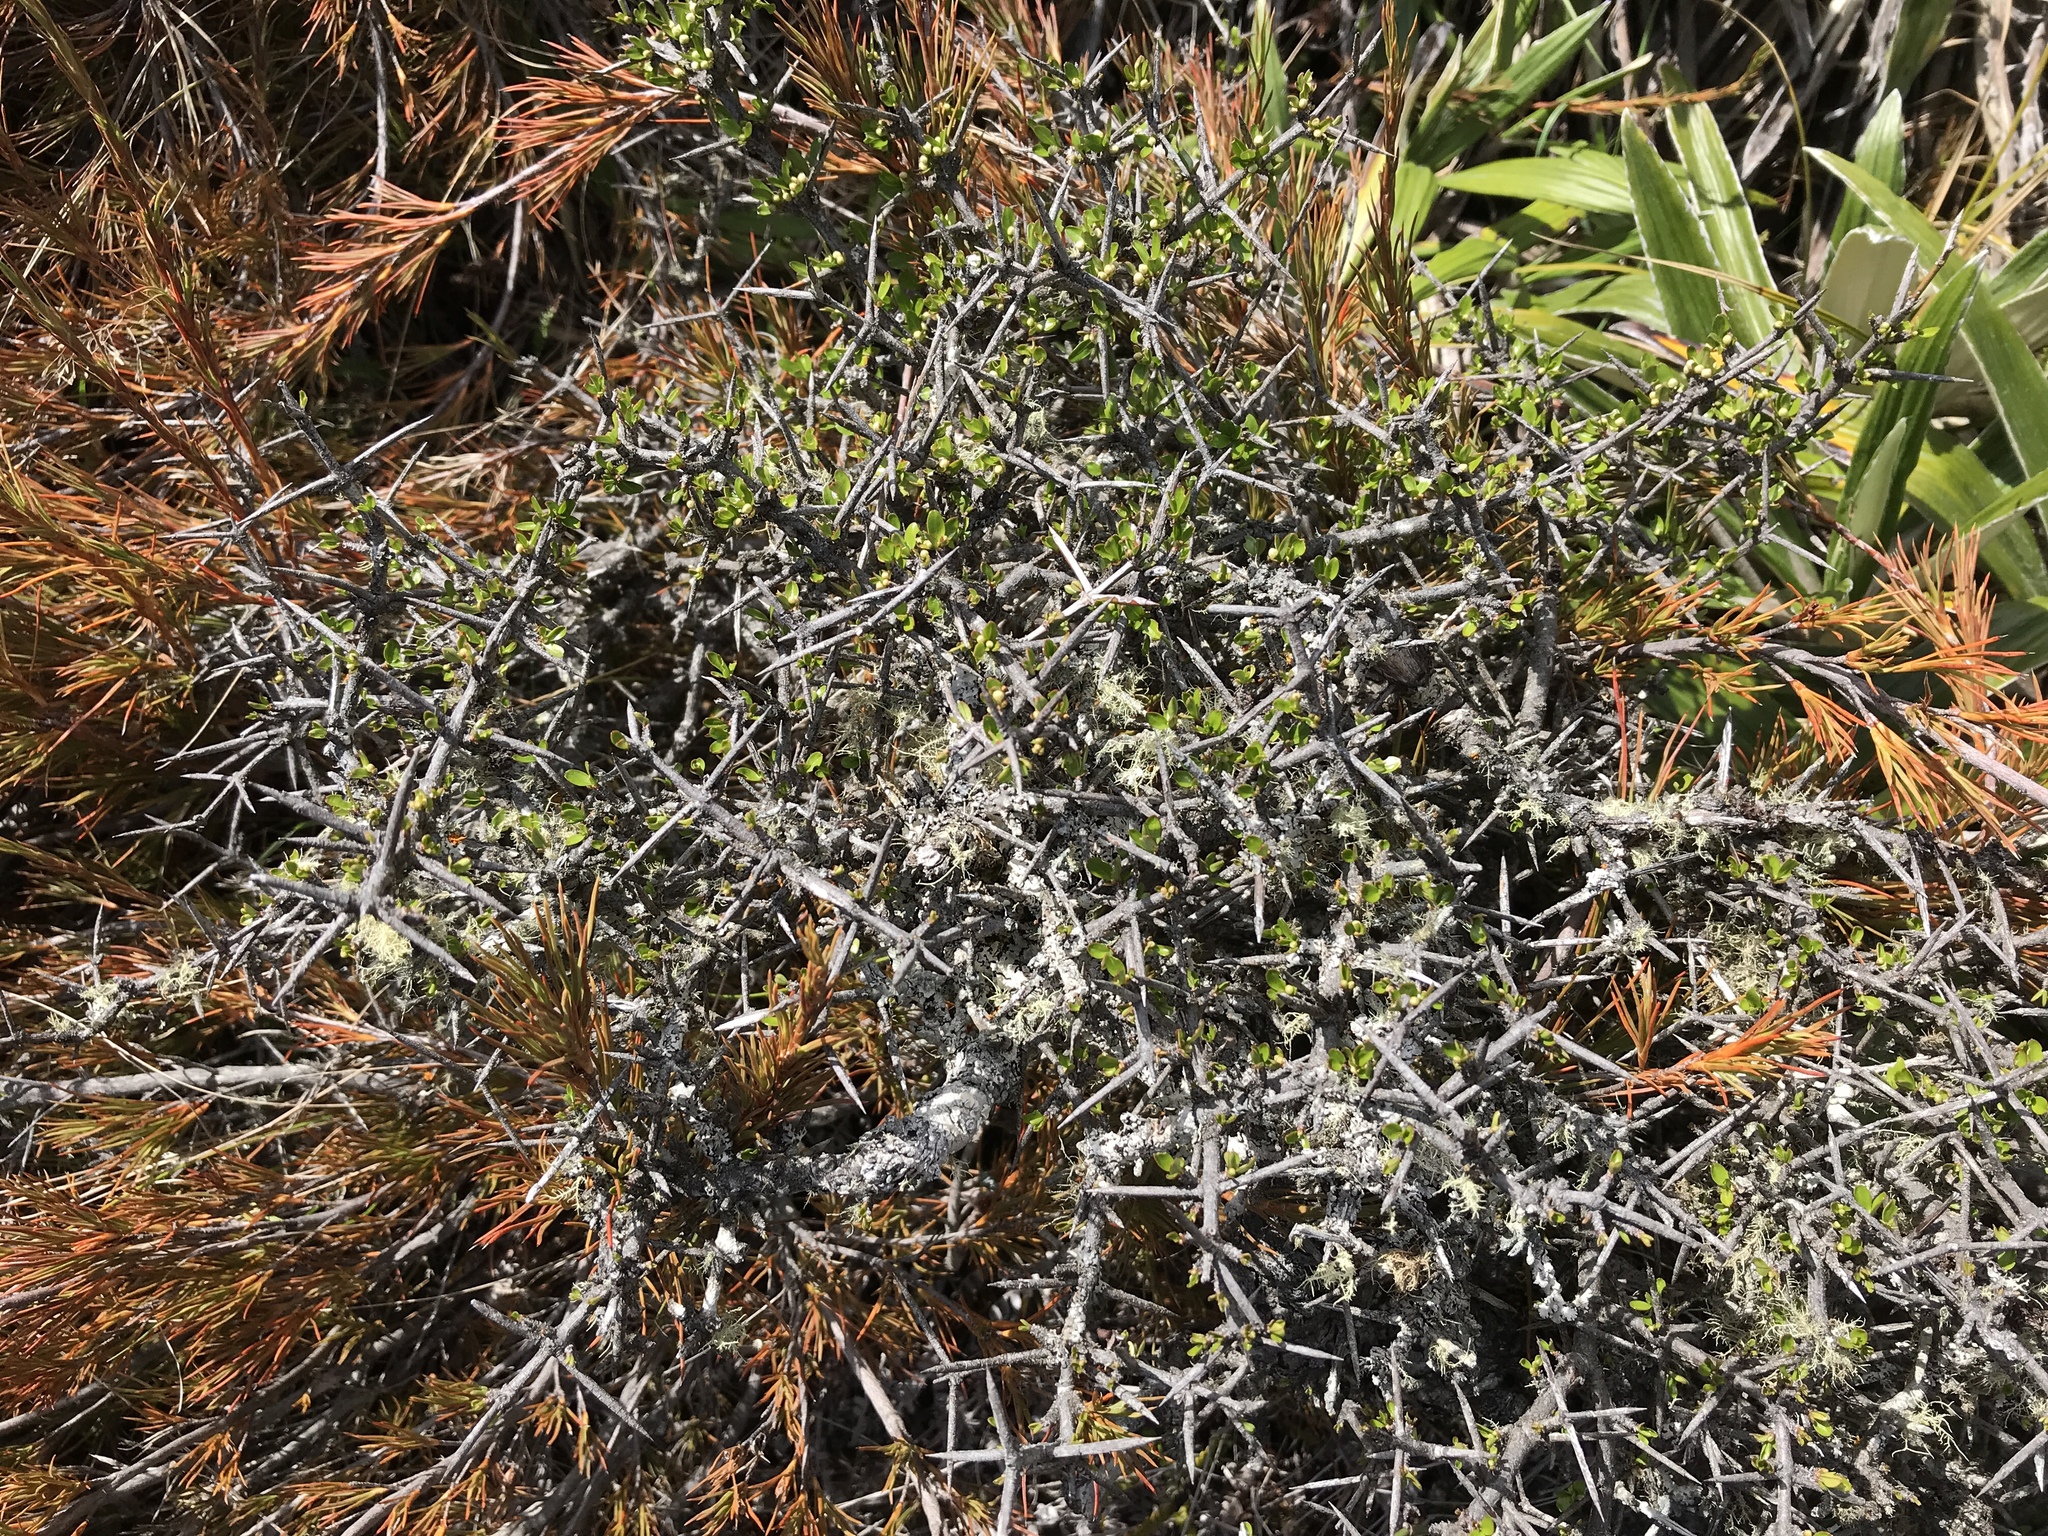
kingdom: Plantae
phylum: Tracheophyta
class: Magnoliopsida
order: Rosales
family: Rhamnaceae
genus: Discaria
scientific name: Discaria toumatou
